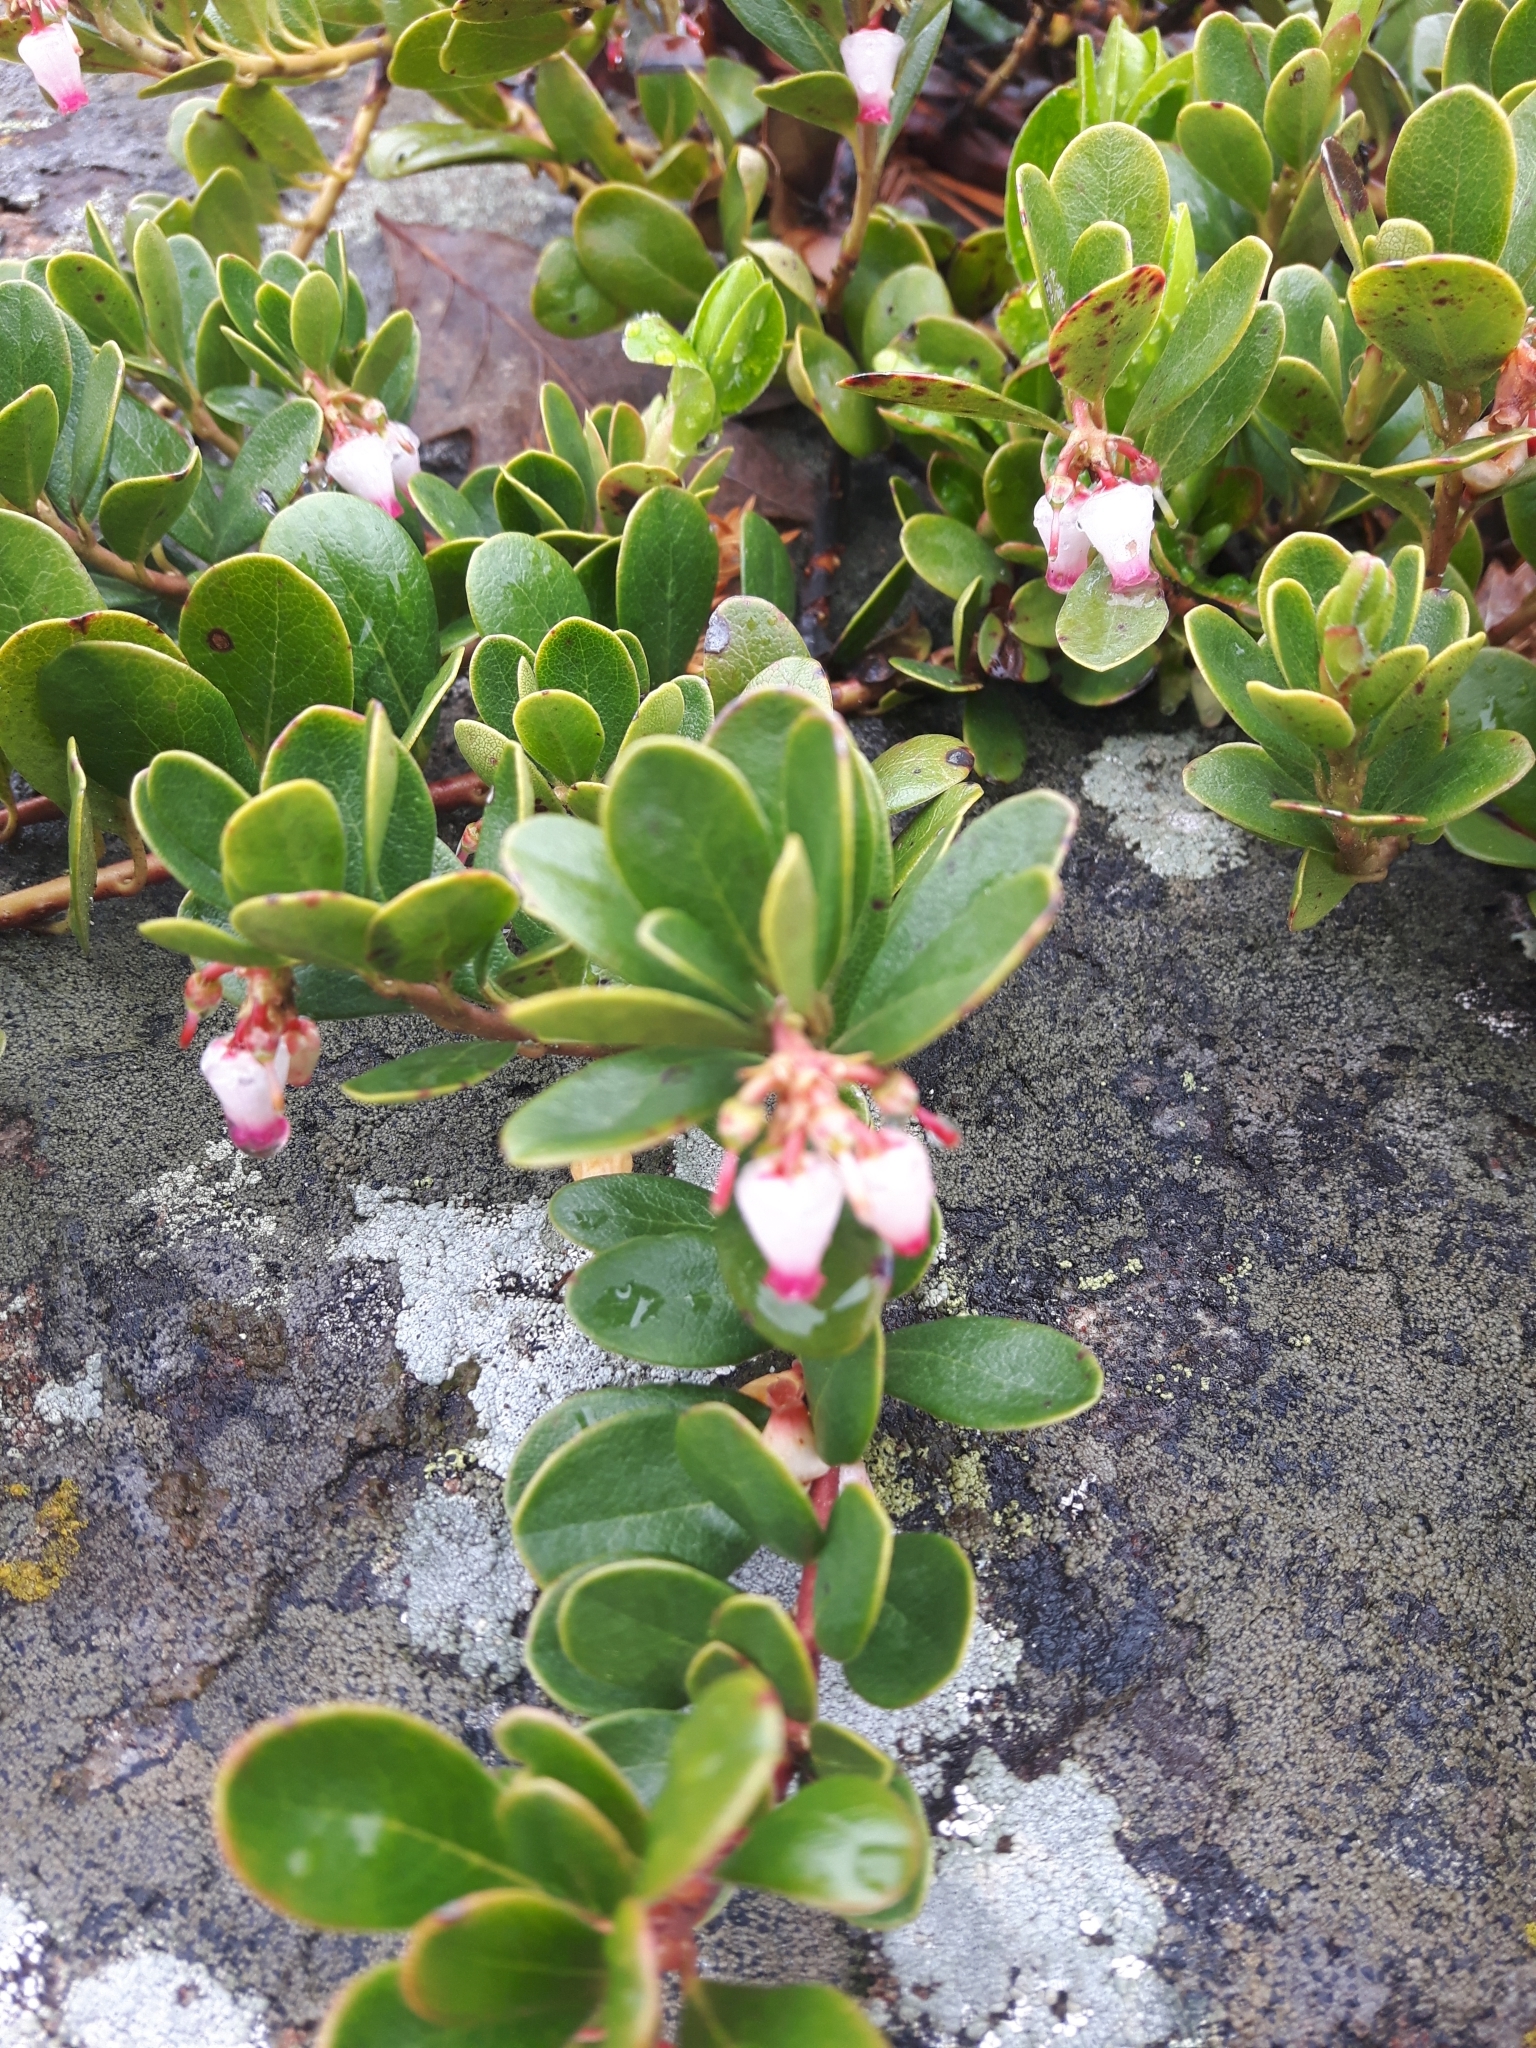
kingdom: Plantae
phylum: Tracheophyta
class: Magnoliopsida
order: Ericales
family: Ericaceae
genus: Arctostaphylos
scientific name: Arctostaphylos uva-ursi
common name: Bearberry
